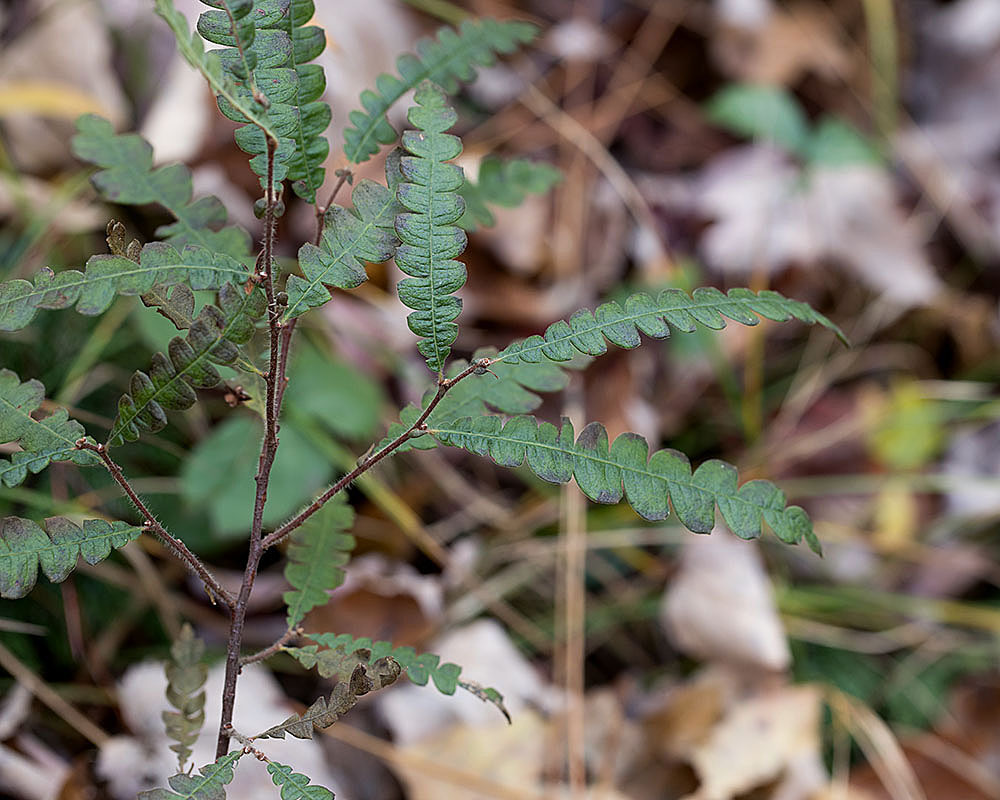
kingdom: Plantae
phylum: Tracheophyta
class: Magnoliopsida
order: Fagales
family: Myricaceae
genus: Comptonia
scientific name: Comptonia peregrina
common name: Sweet-fern
